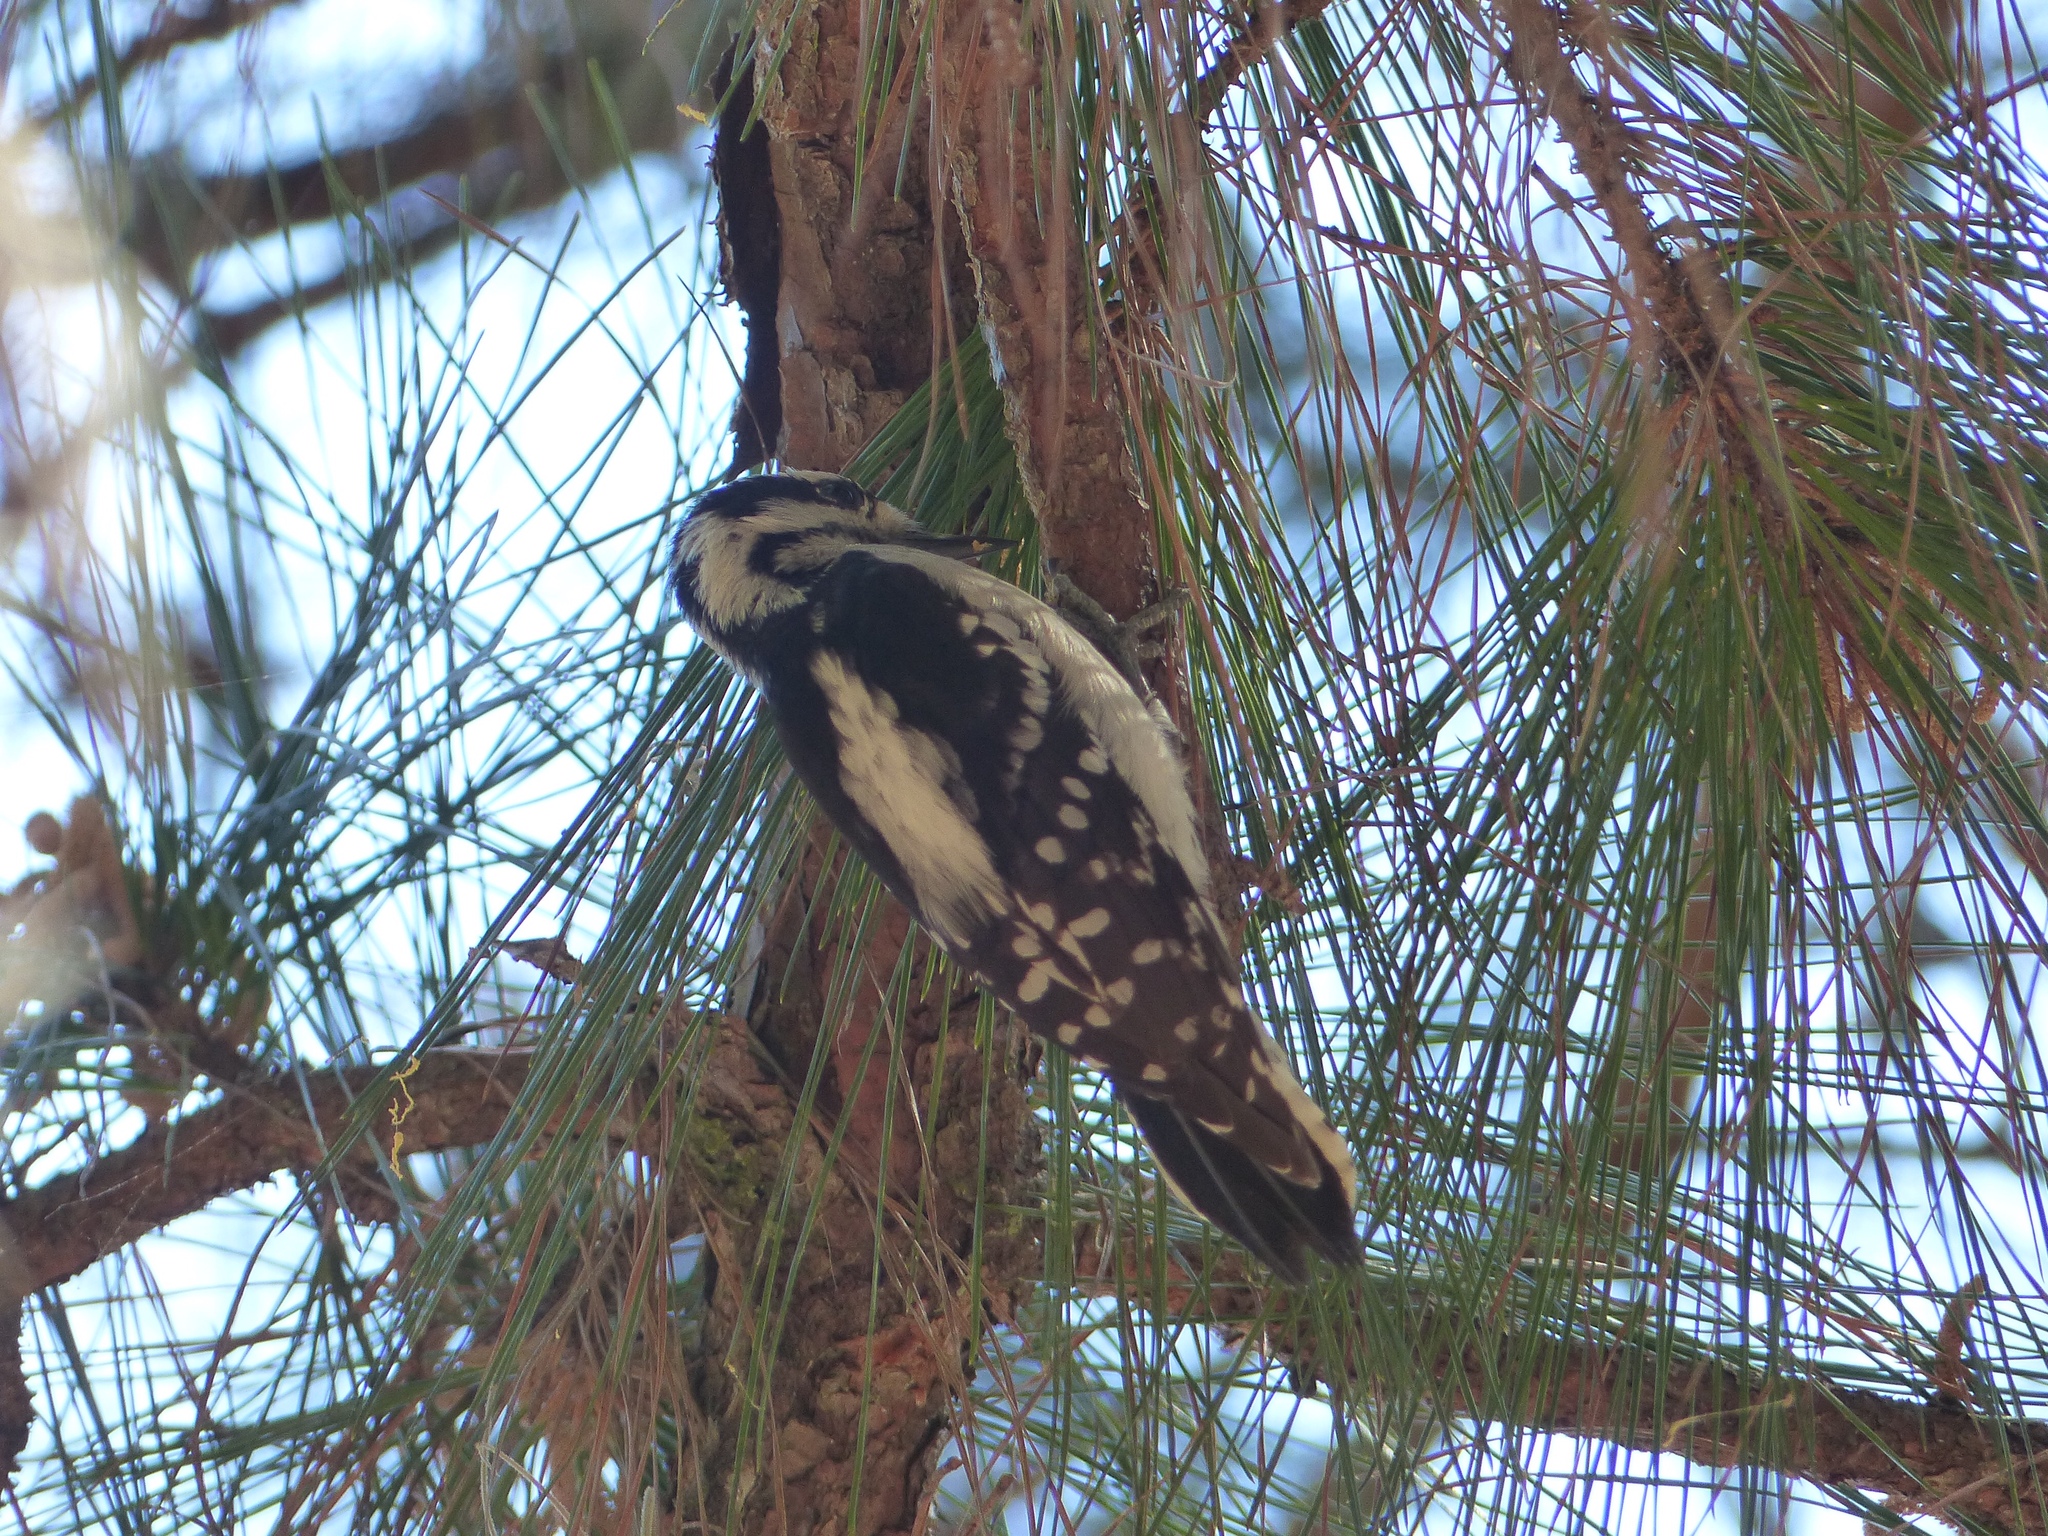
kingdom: Animalia
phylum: Chordata
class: Aves
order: Piciformes
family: Picidae
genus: Dryobates
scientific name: Dryobates pubescens
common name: Downy woodpecker
